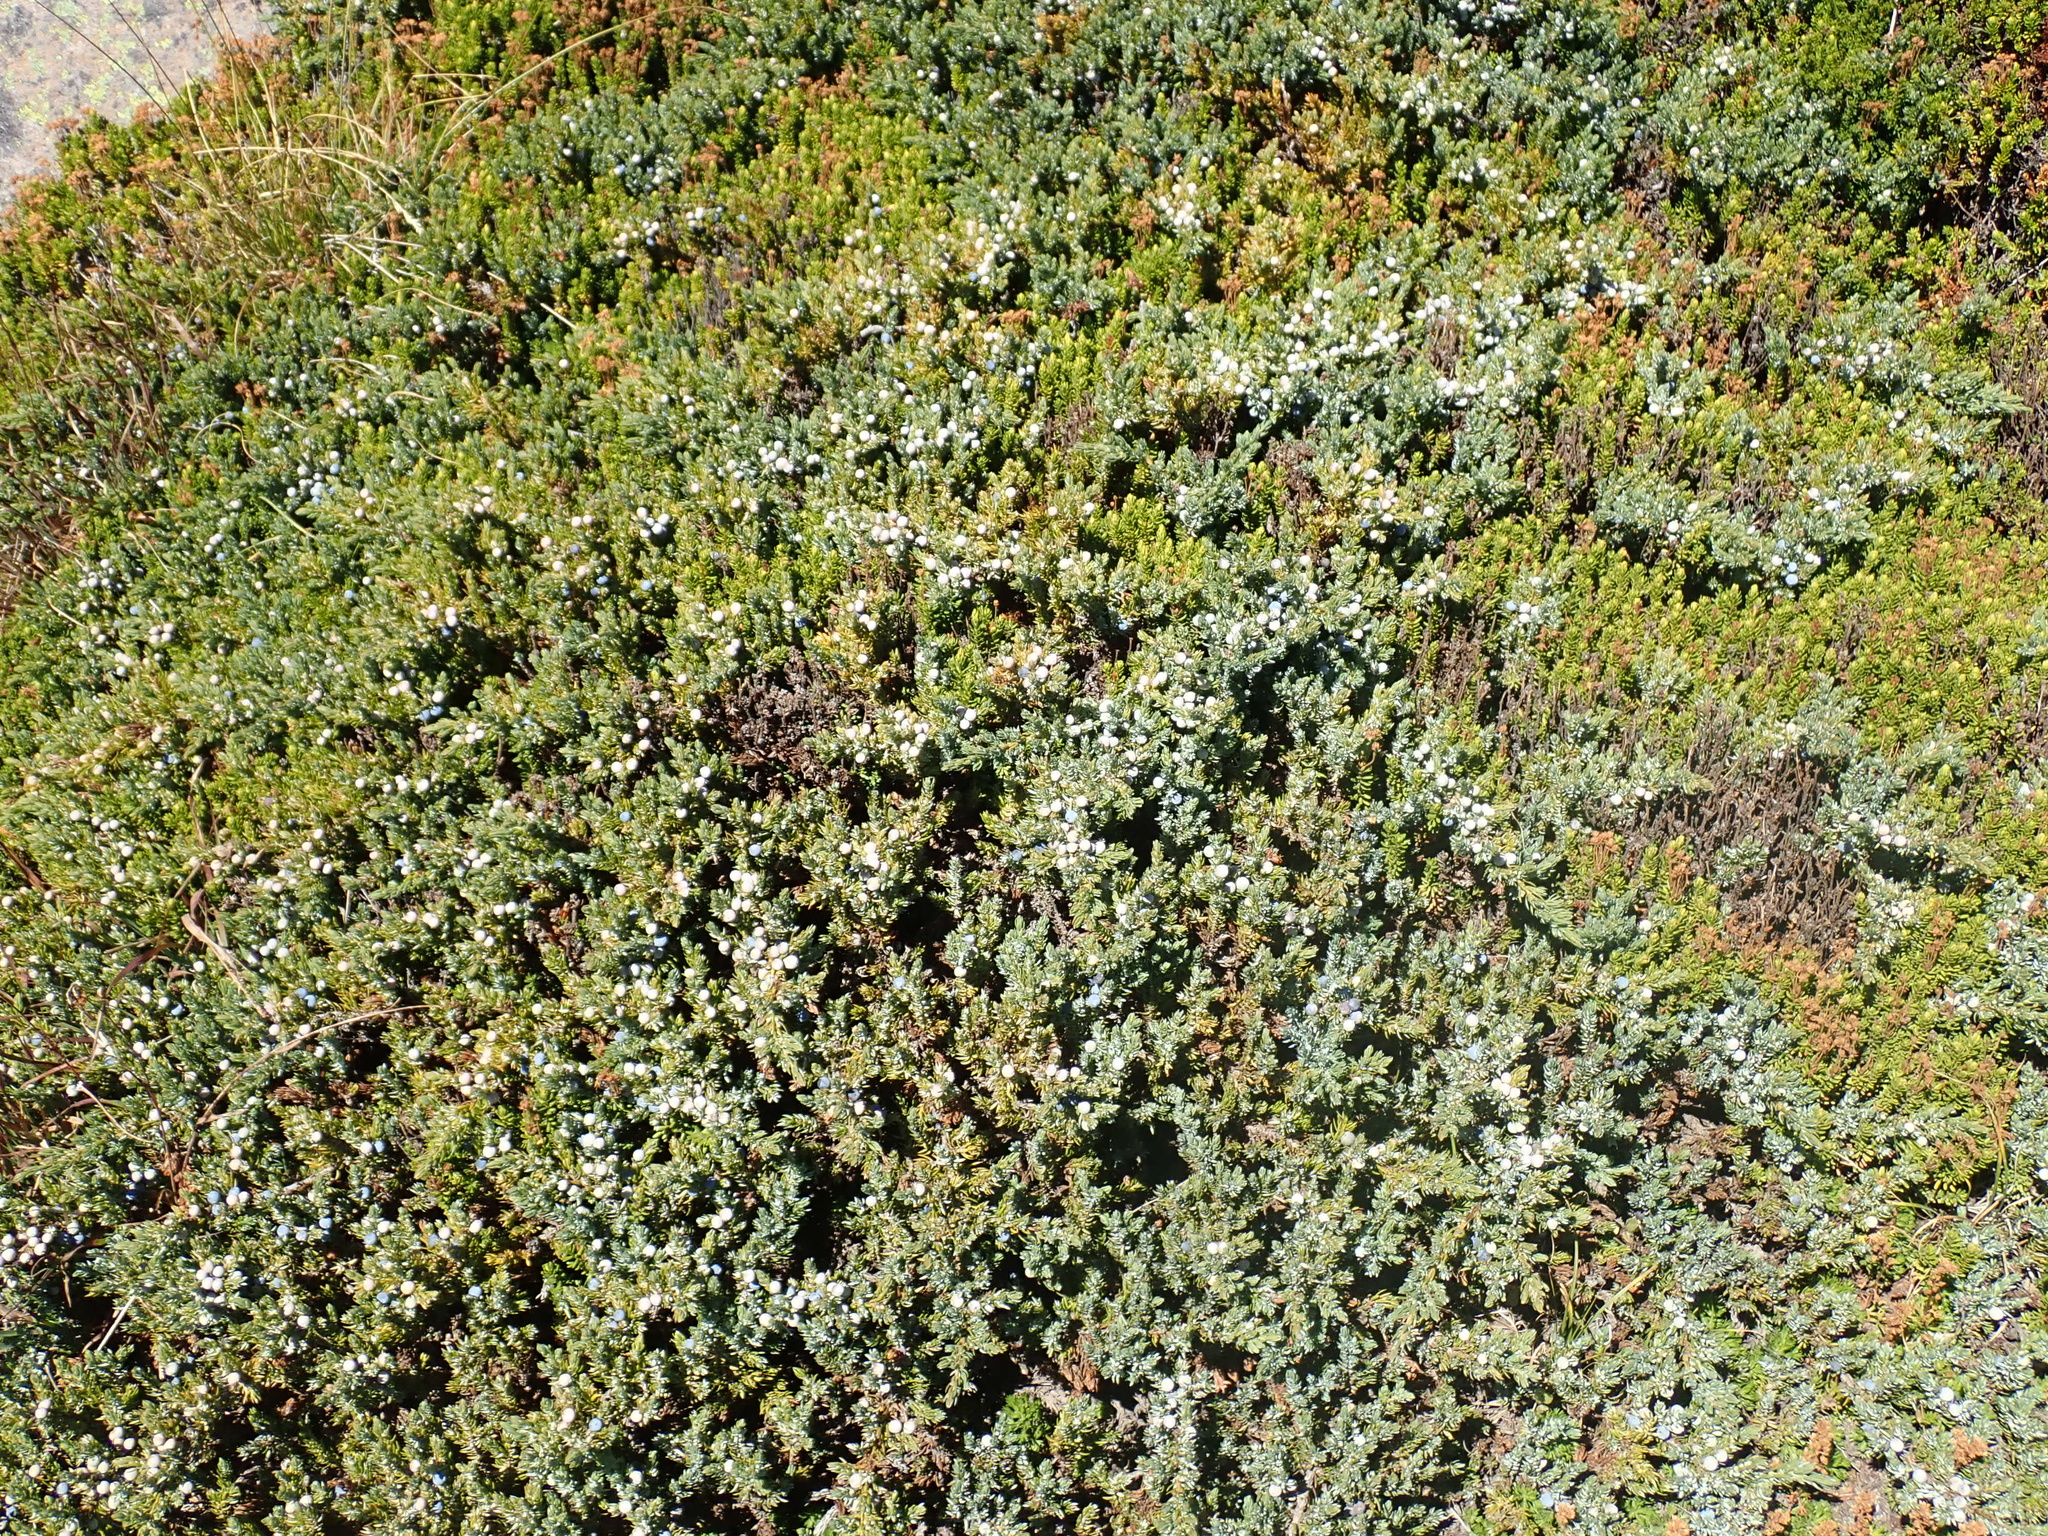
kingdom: Plantae
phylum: Tracheophyta
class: Pinopsida
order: Pinales
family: Cupressaceae
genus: Juniperus
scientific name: Juniperus communis
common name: Common juniper
